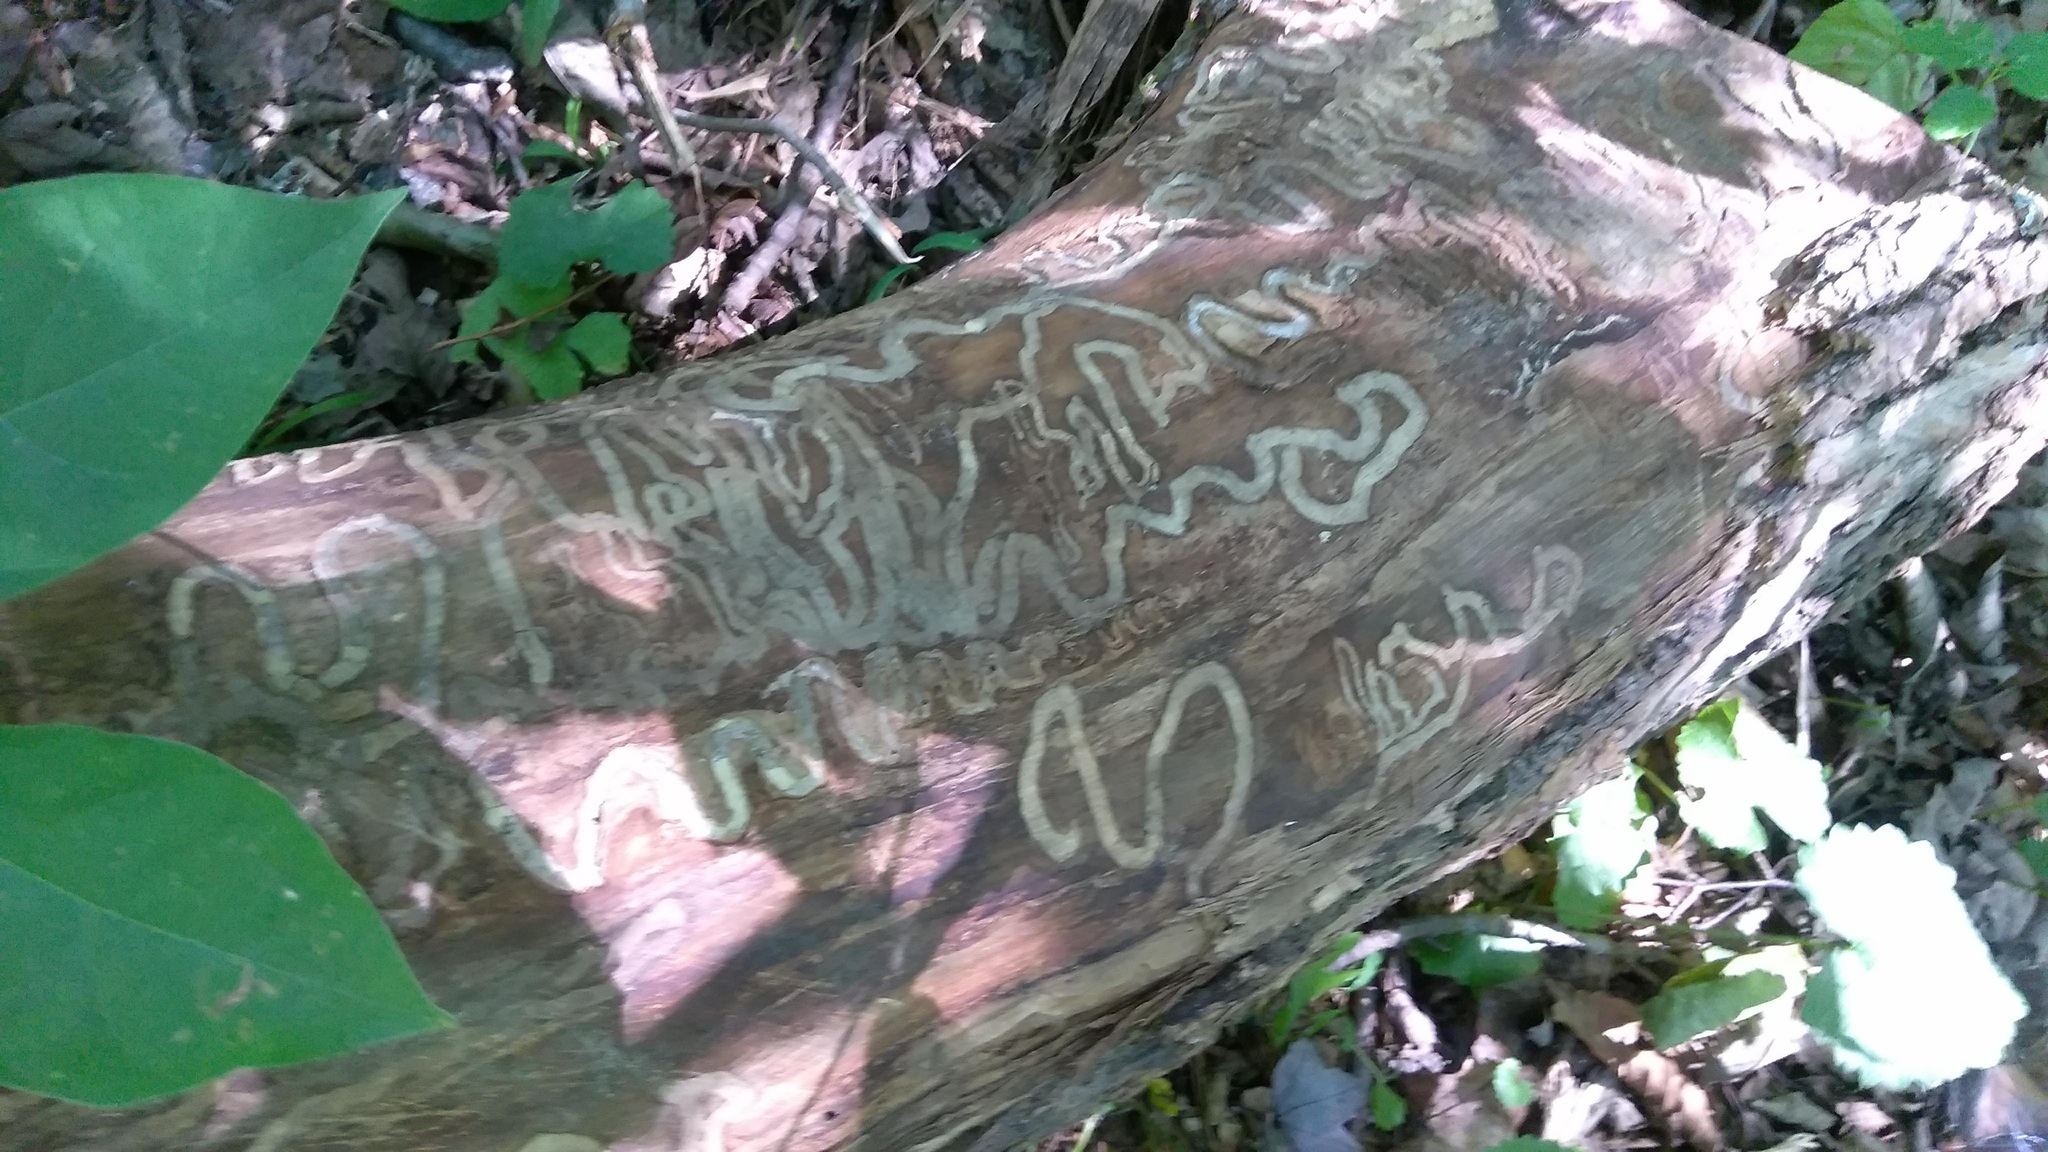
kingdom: Animalia
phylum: Arthropoda
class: Insecta
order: Coleoptera
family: Buprestidae
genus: Agrilus
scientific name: Agrilus planipennis
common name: Emerald ash borer
